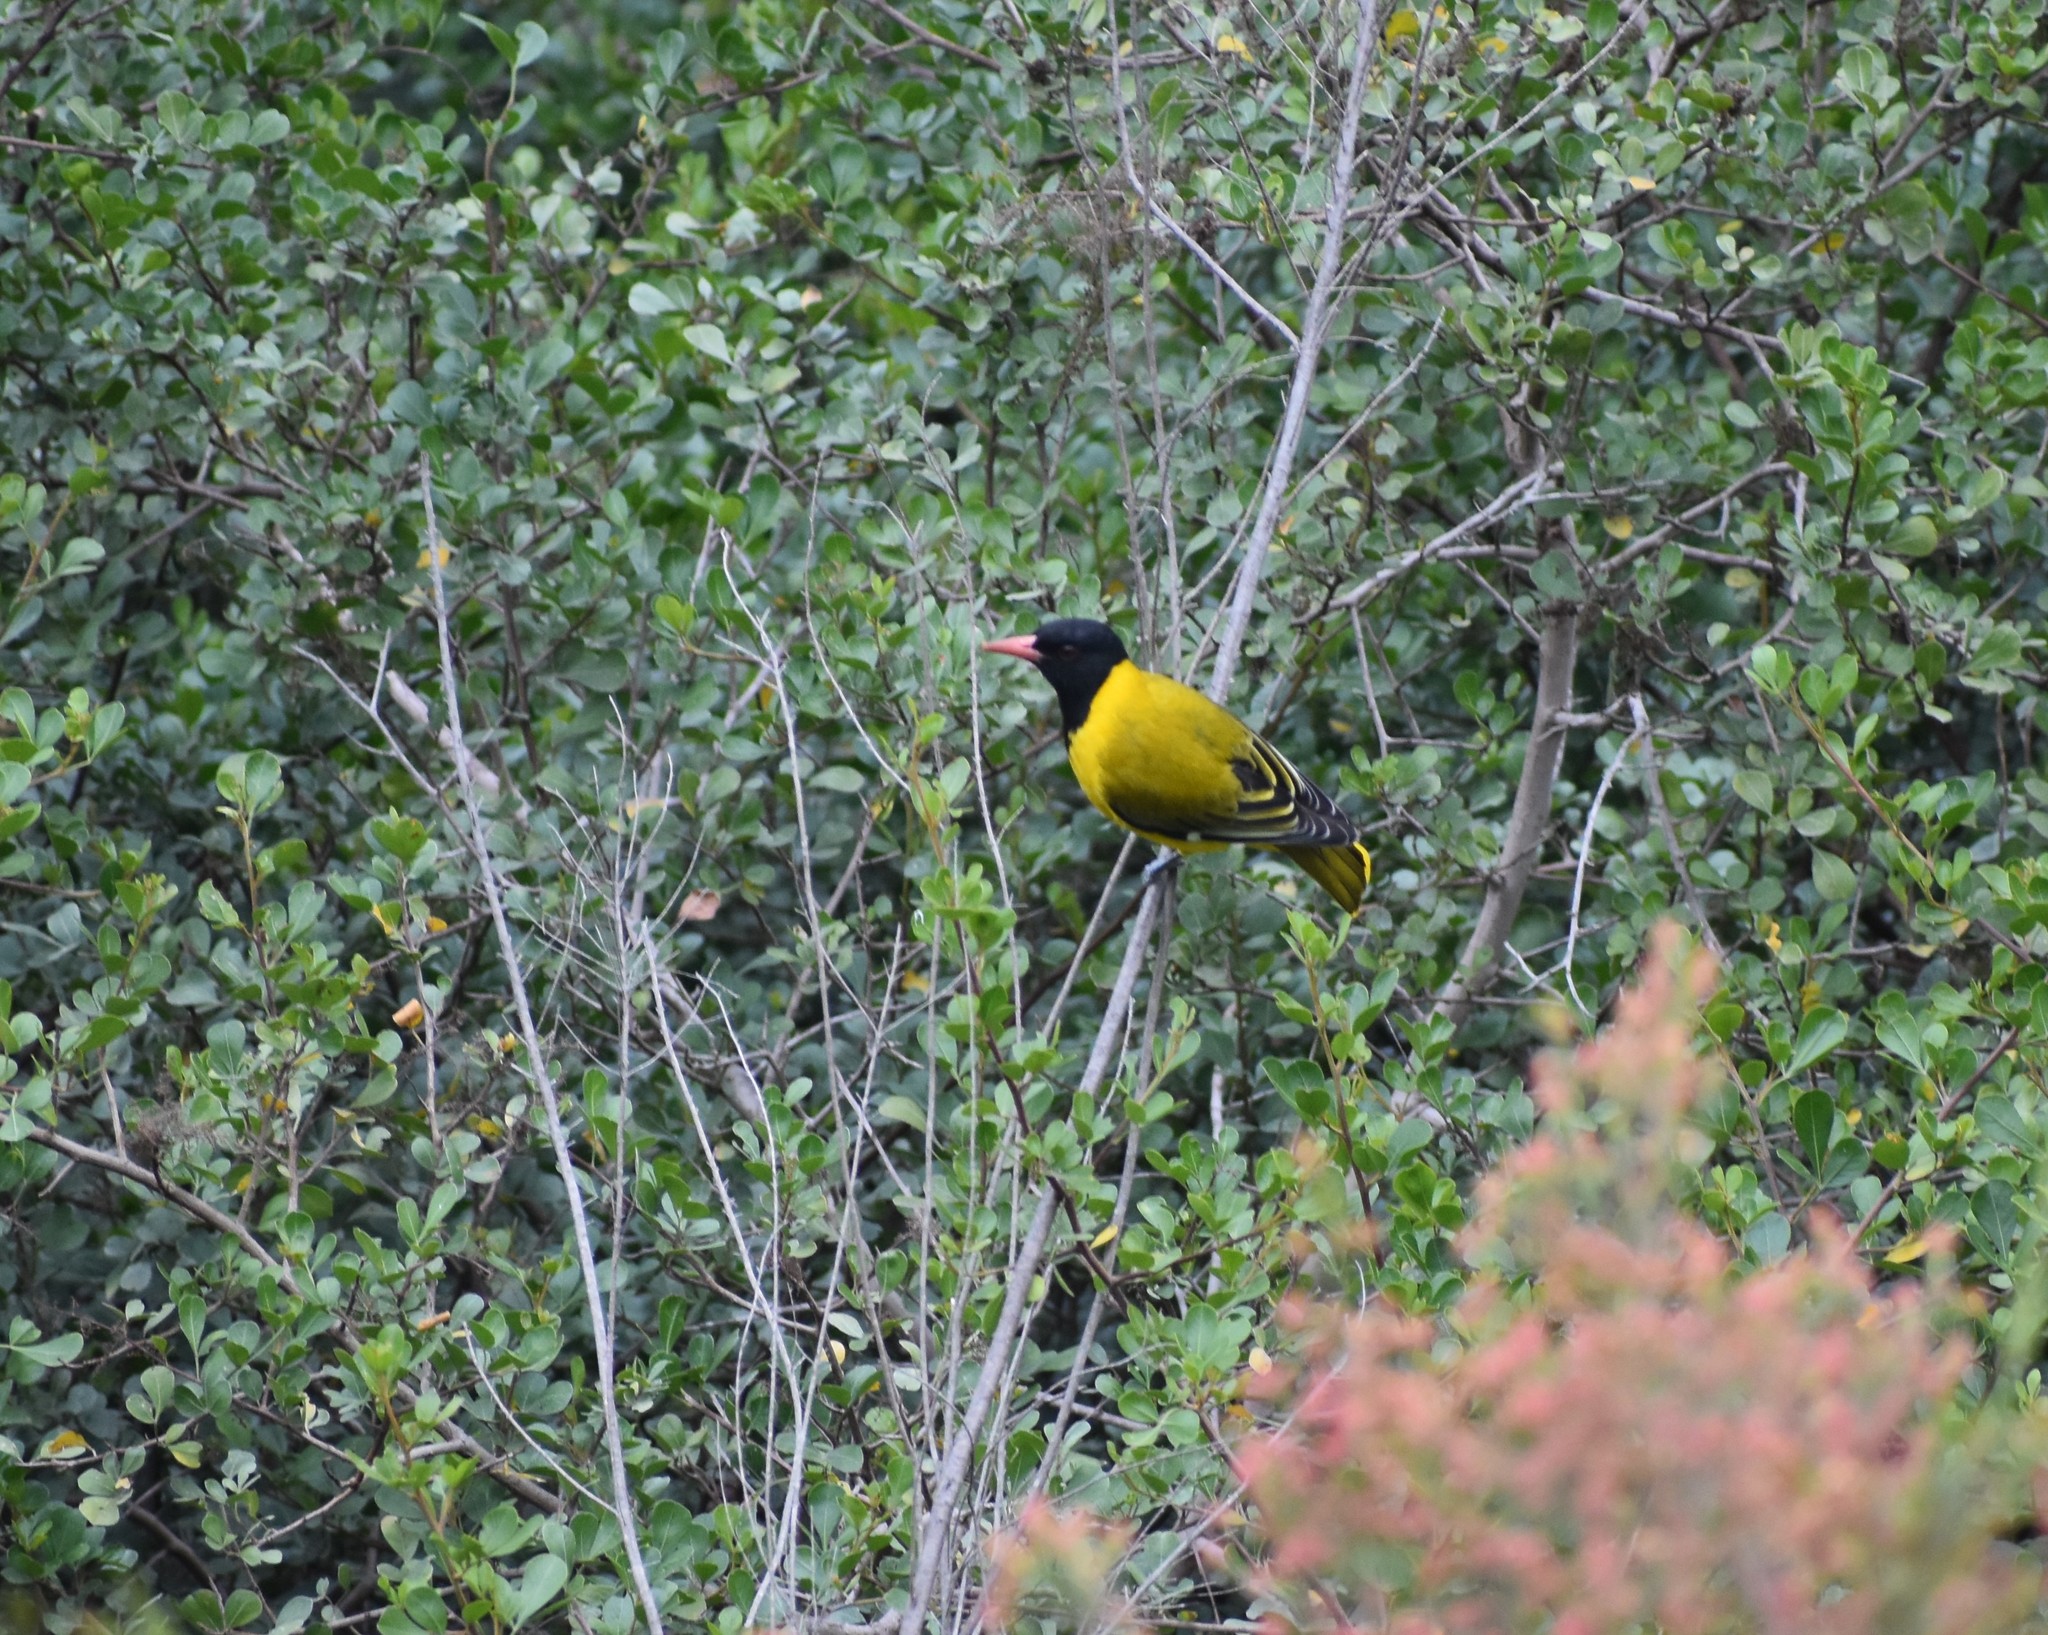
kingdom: Animalia
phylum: Chordata
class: Aves
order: Passeriformes
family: Oriolidae
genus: Oriolus
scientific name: Oriolus larvatus
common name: Black-headed oriole
